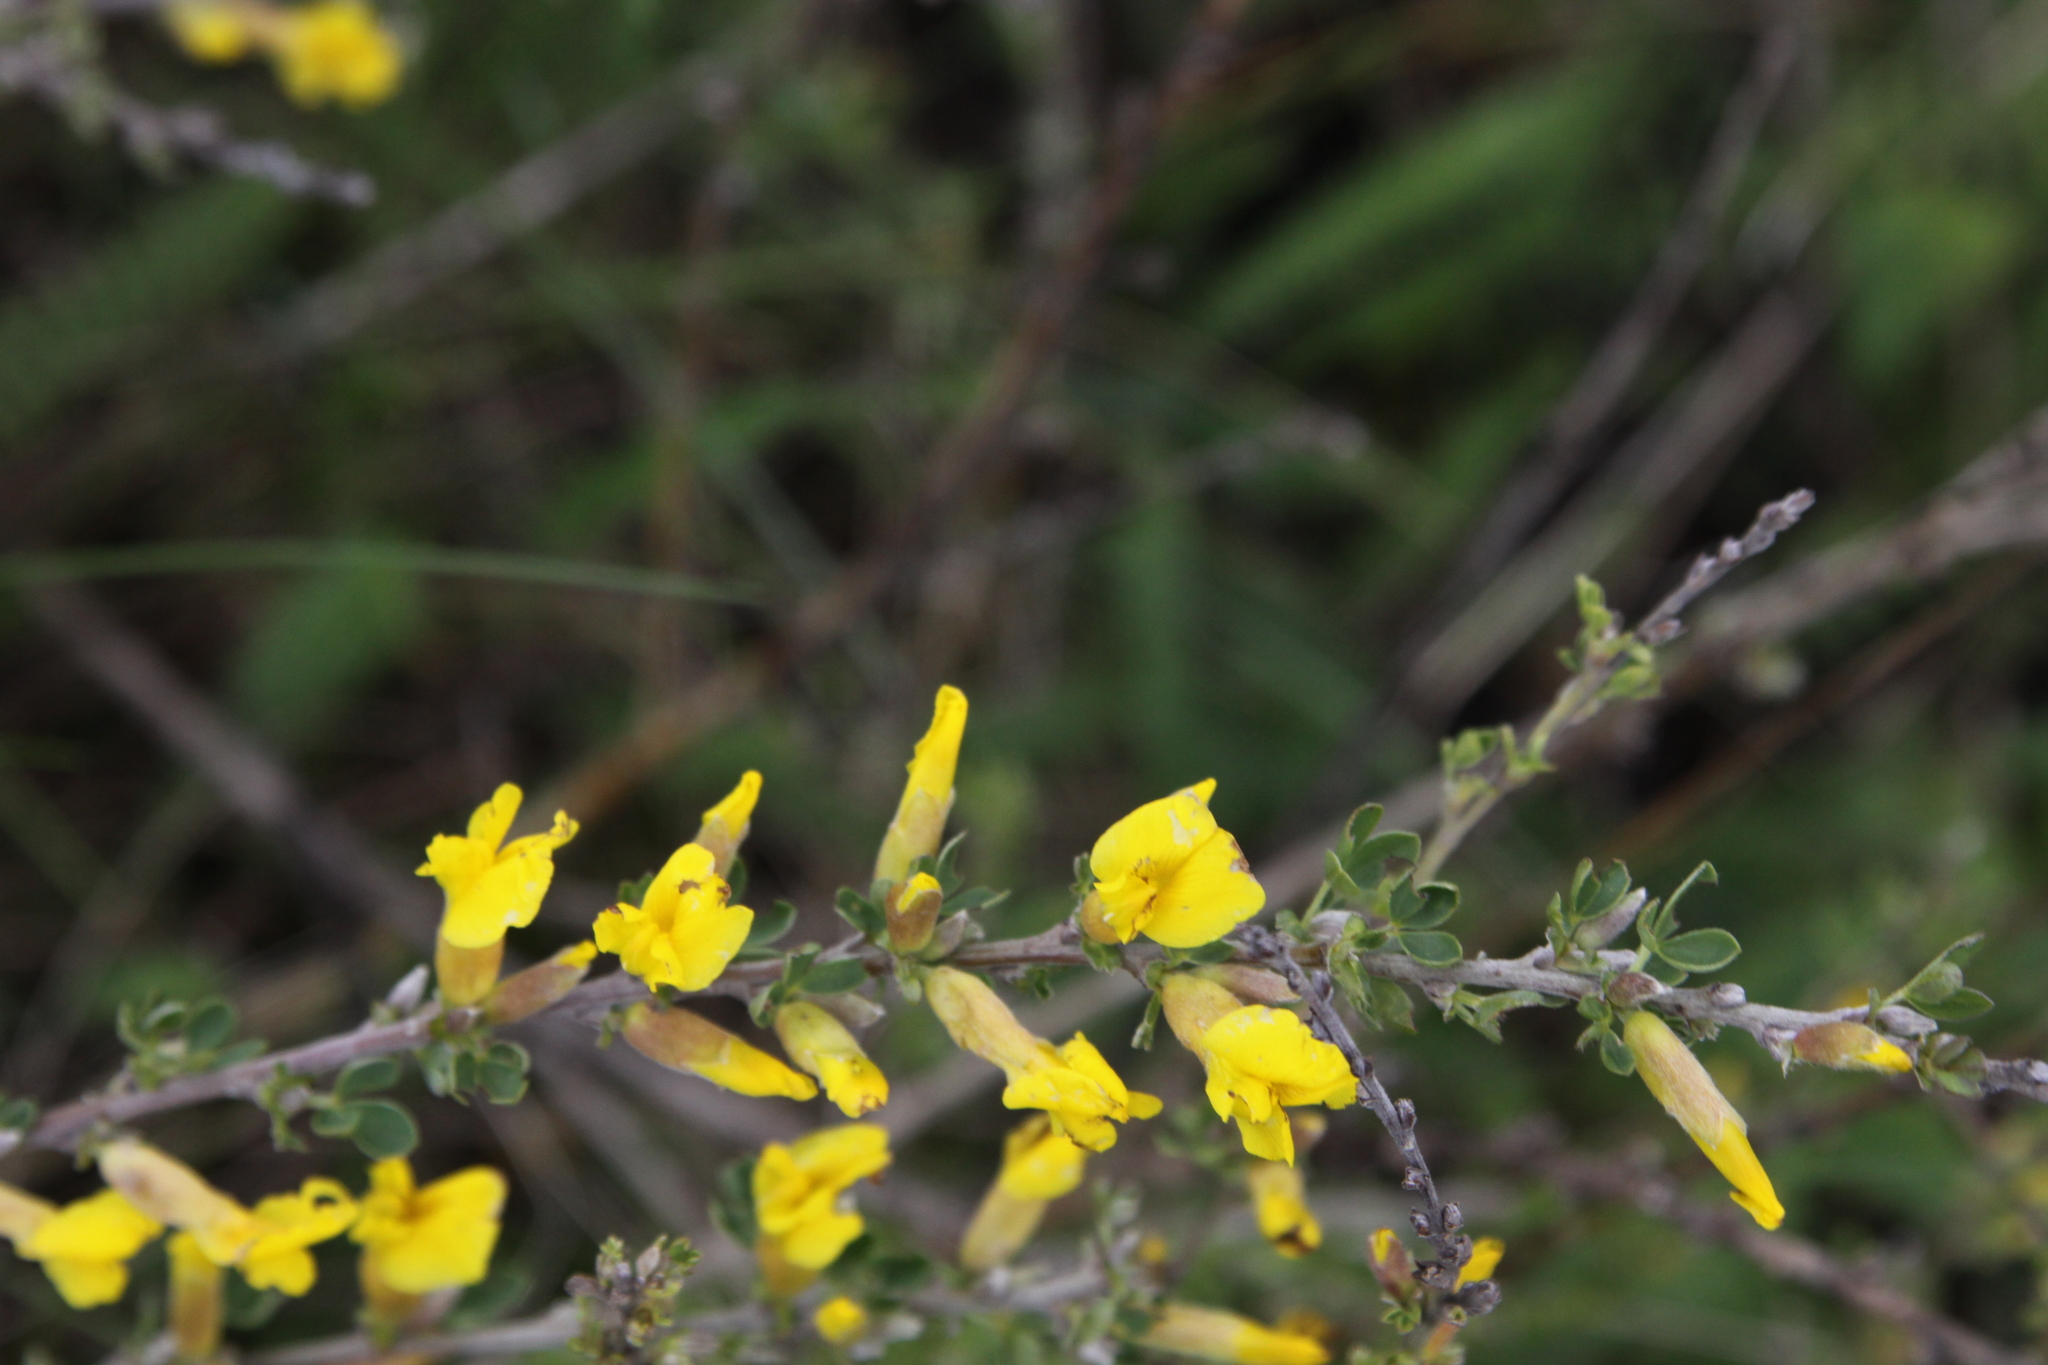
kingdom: Plantae
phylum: Tracheophyta
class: Magnoliopsida
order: Fabales
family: Fabaceae
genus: Chamaecytisus
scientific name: Chamaecytisus ruthenicus
